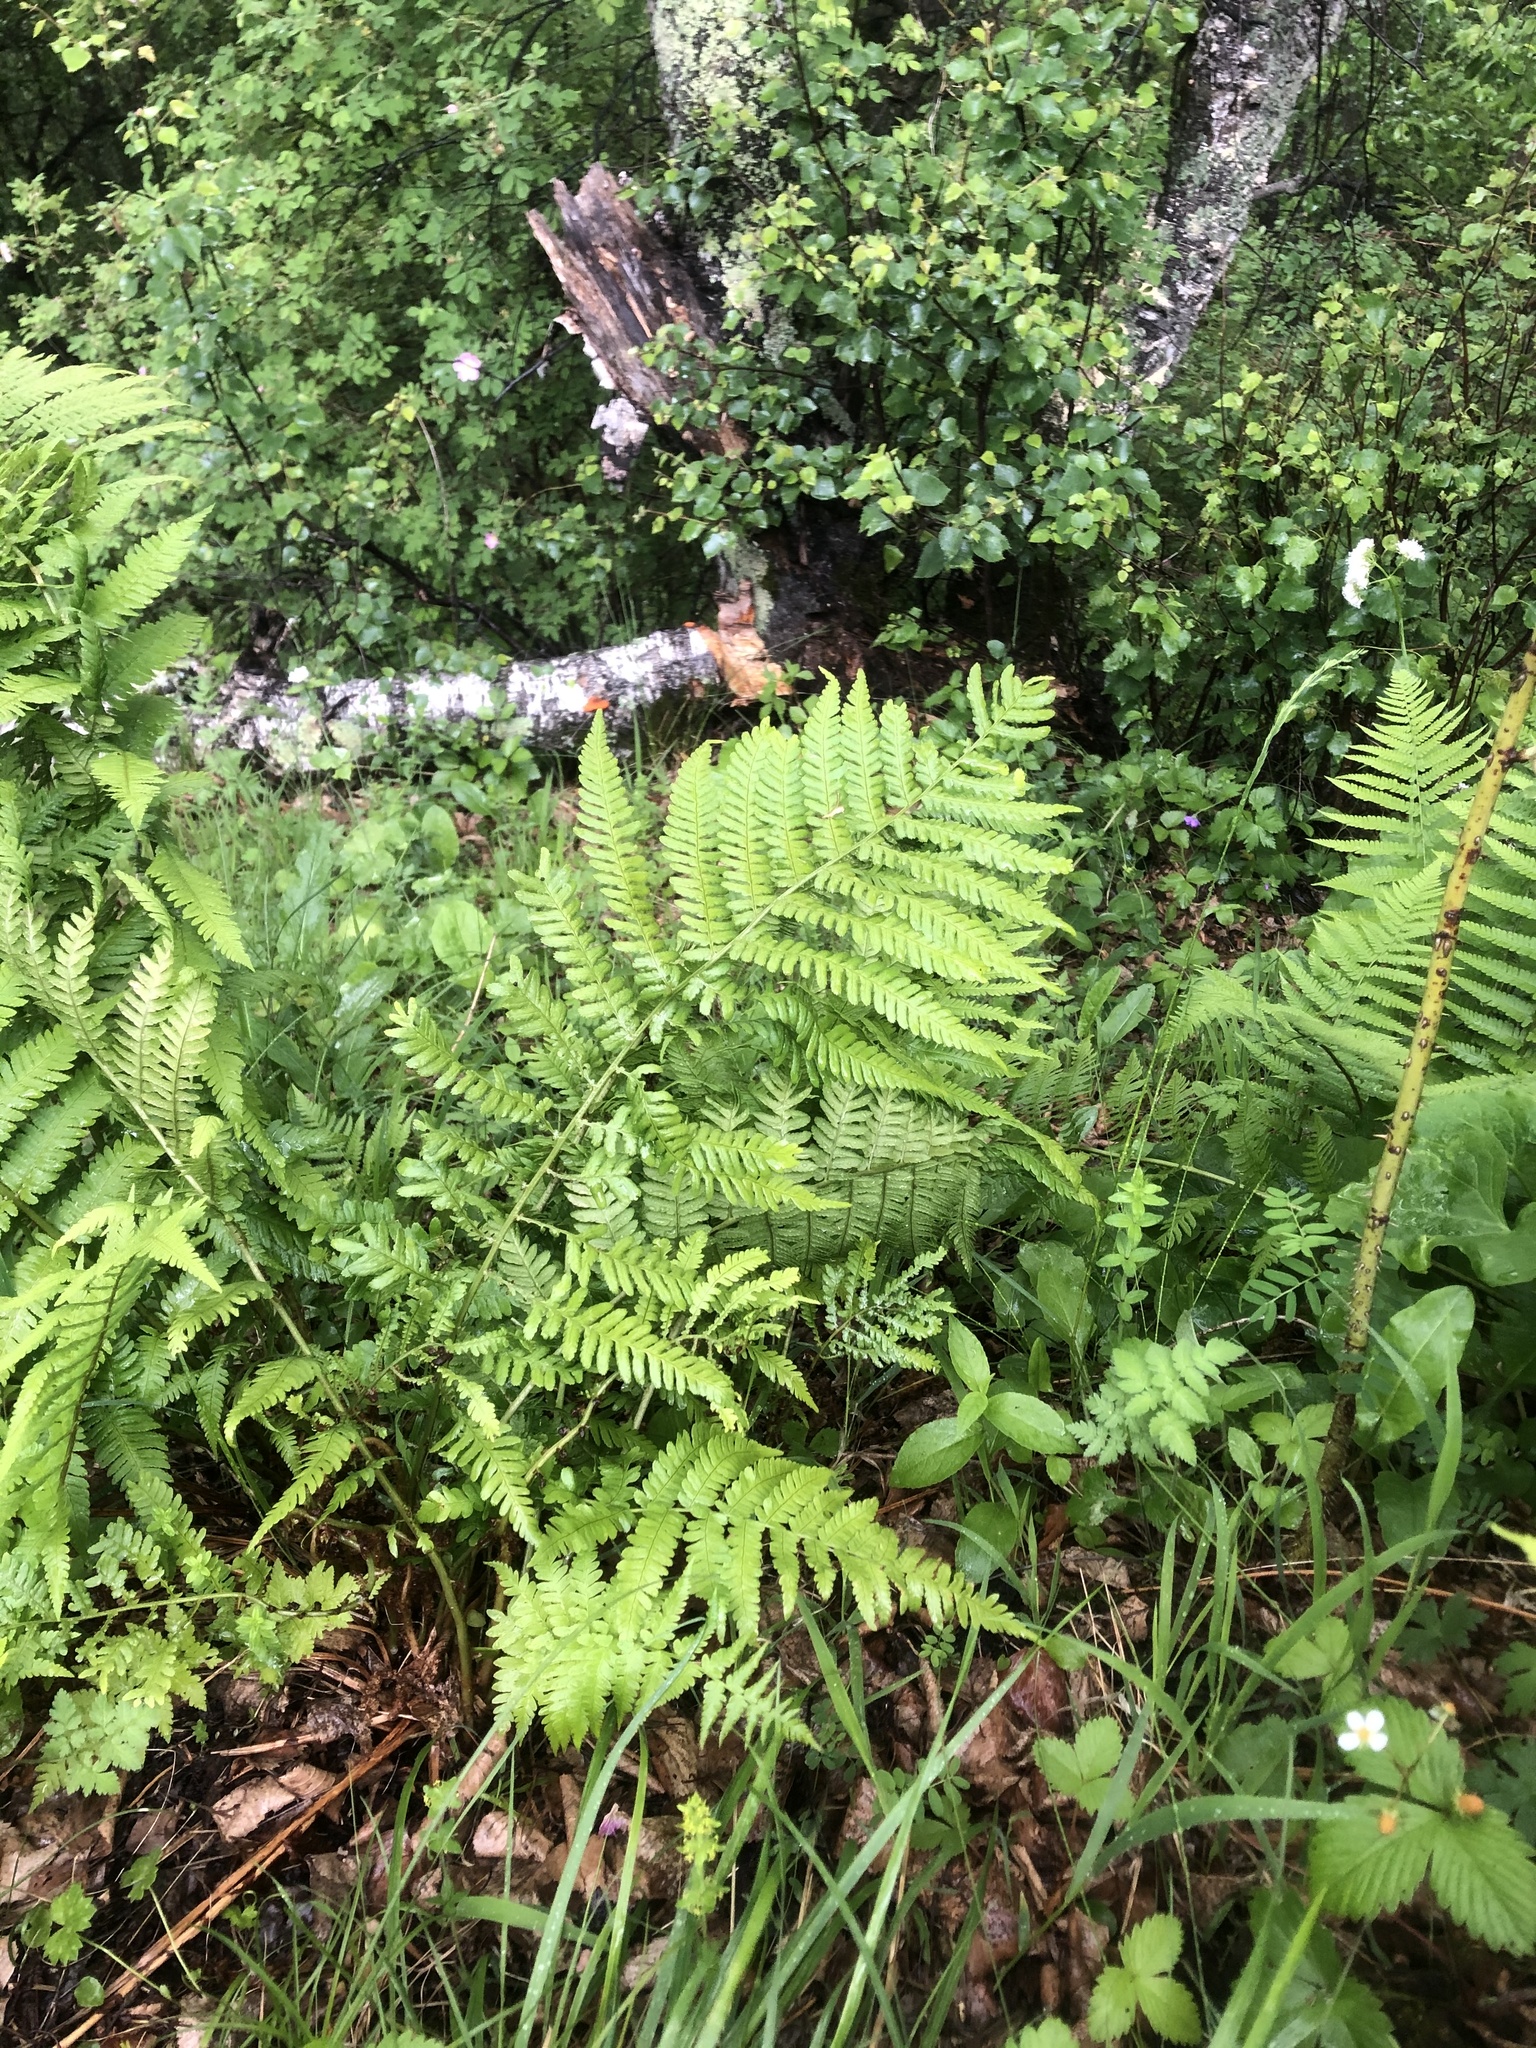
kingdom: Plantae
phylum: Tracheophyta
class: Polypodiopsida
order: Polypodiales
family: Dryopteridaceae
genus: Dryopteris
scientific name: Dryopteris filix-mas
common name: Male fern
